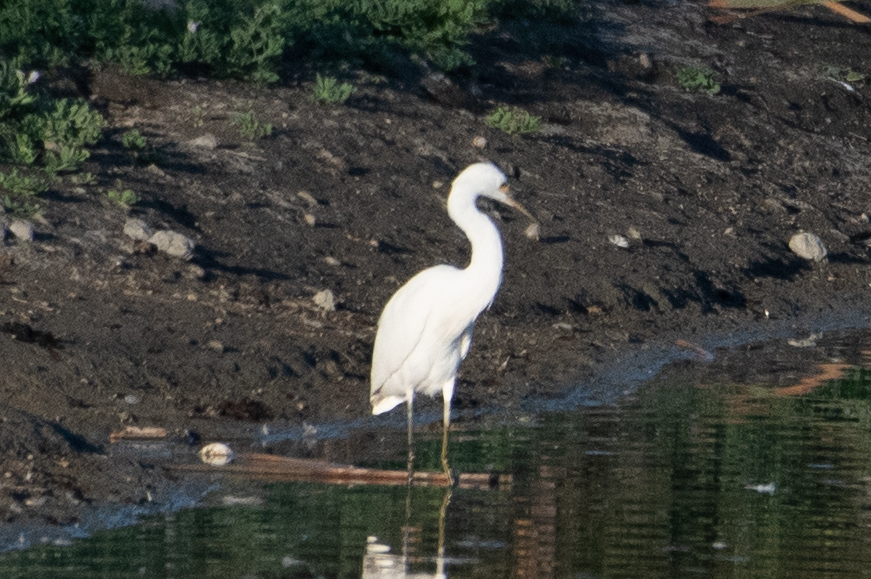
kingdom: Animalia
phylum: Chordata
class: Aves
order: Pelecaniformes
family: Ardeidae
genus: Egretta
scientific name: Egretta thula
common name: Snowy egret
